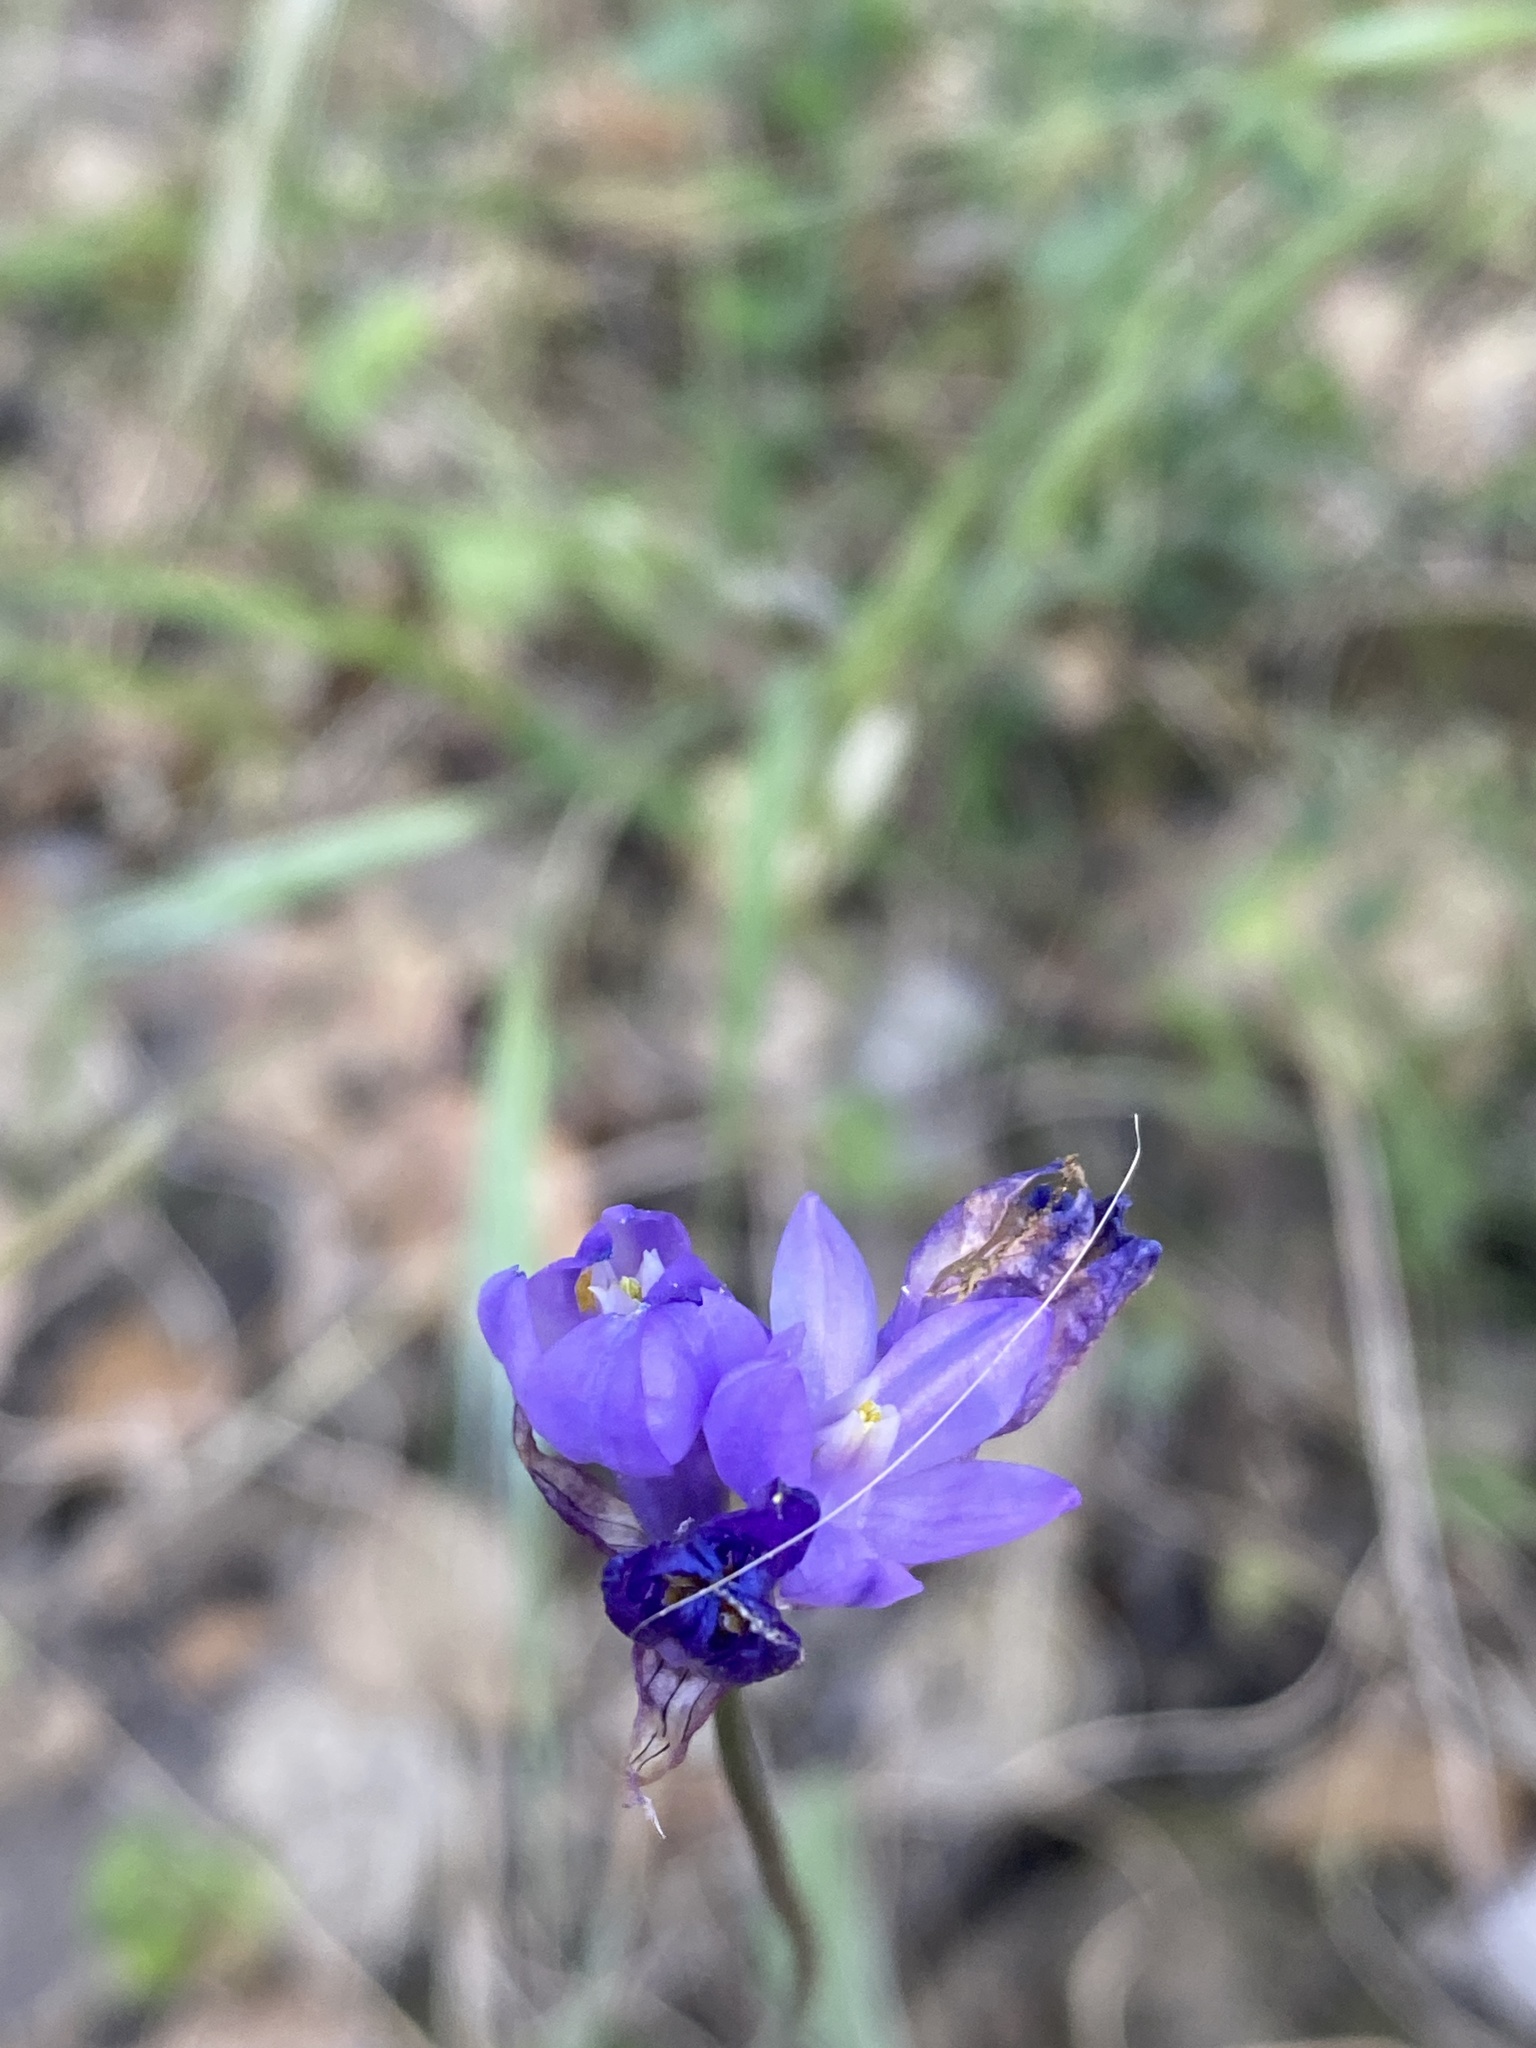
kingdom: Plantae
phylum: Tracheophyta
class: Liliopsida
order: Asparagales
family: Asparagaceae
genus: Dipterostemon
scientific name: Dipterostemon capitatus
